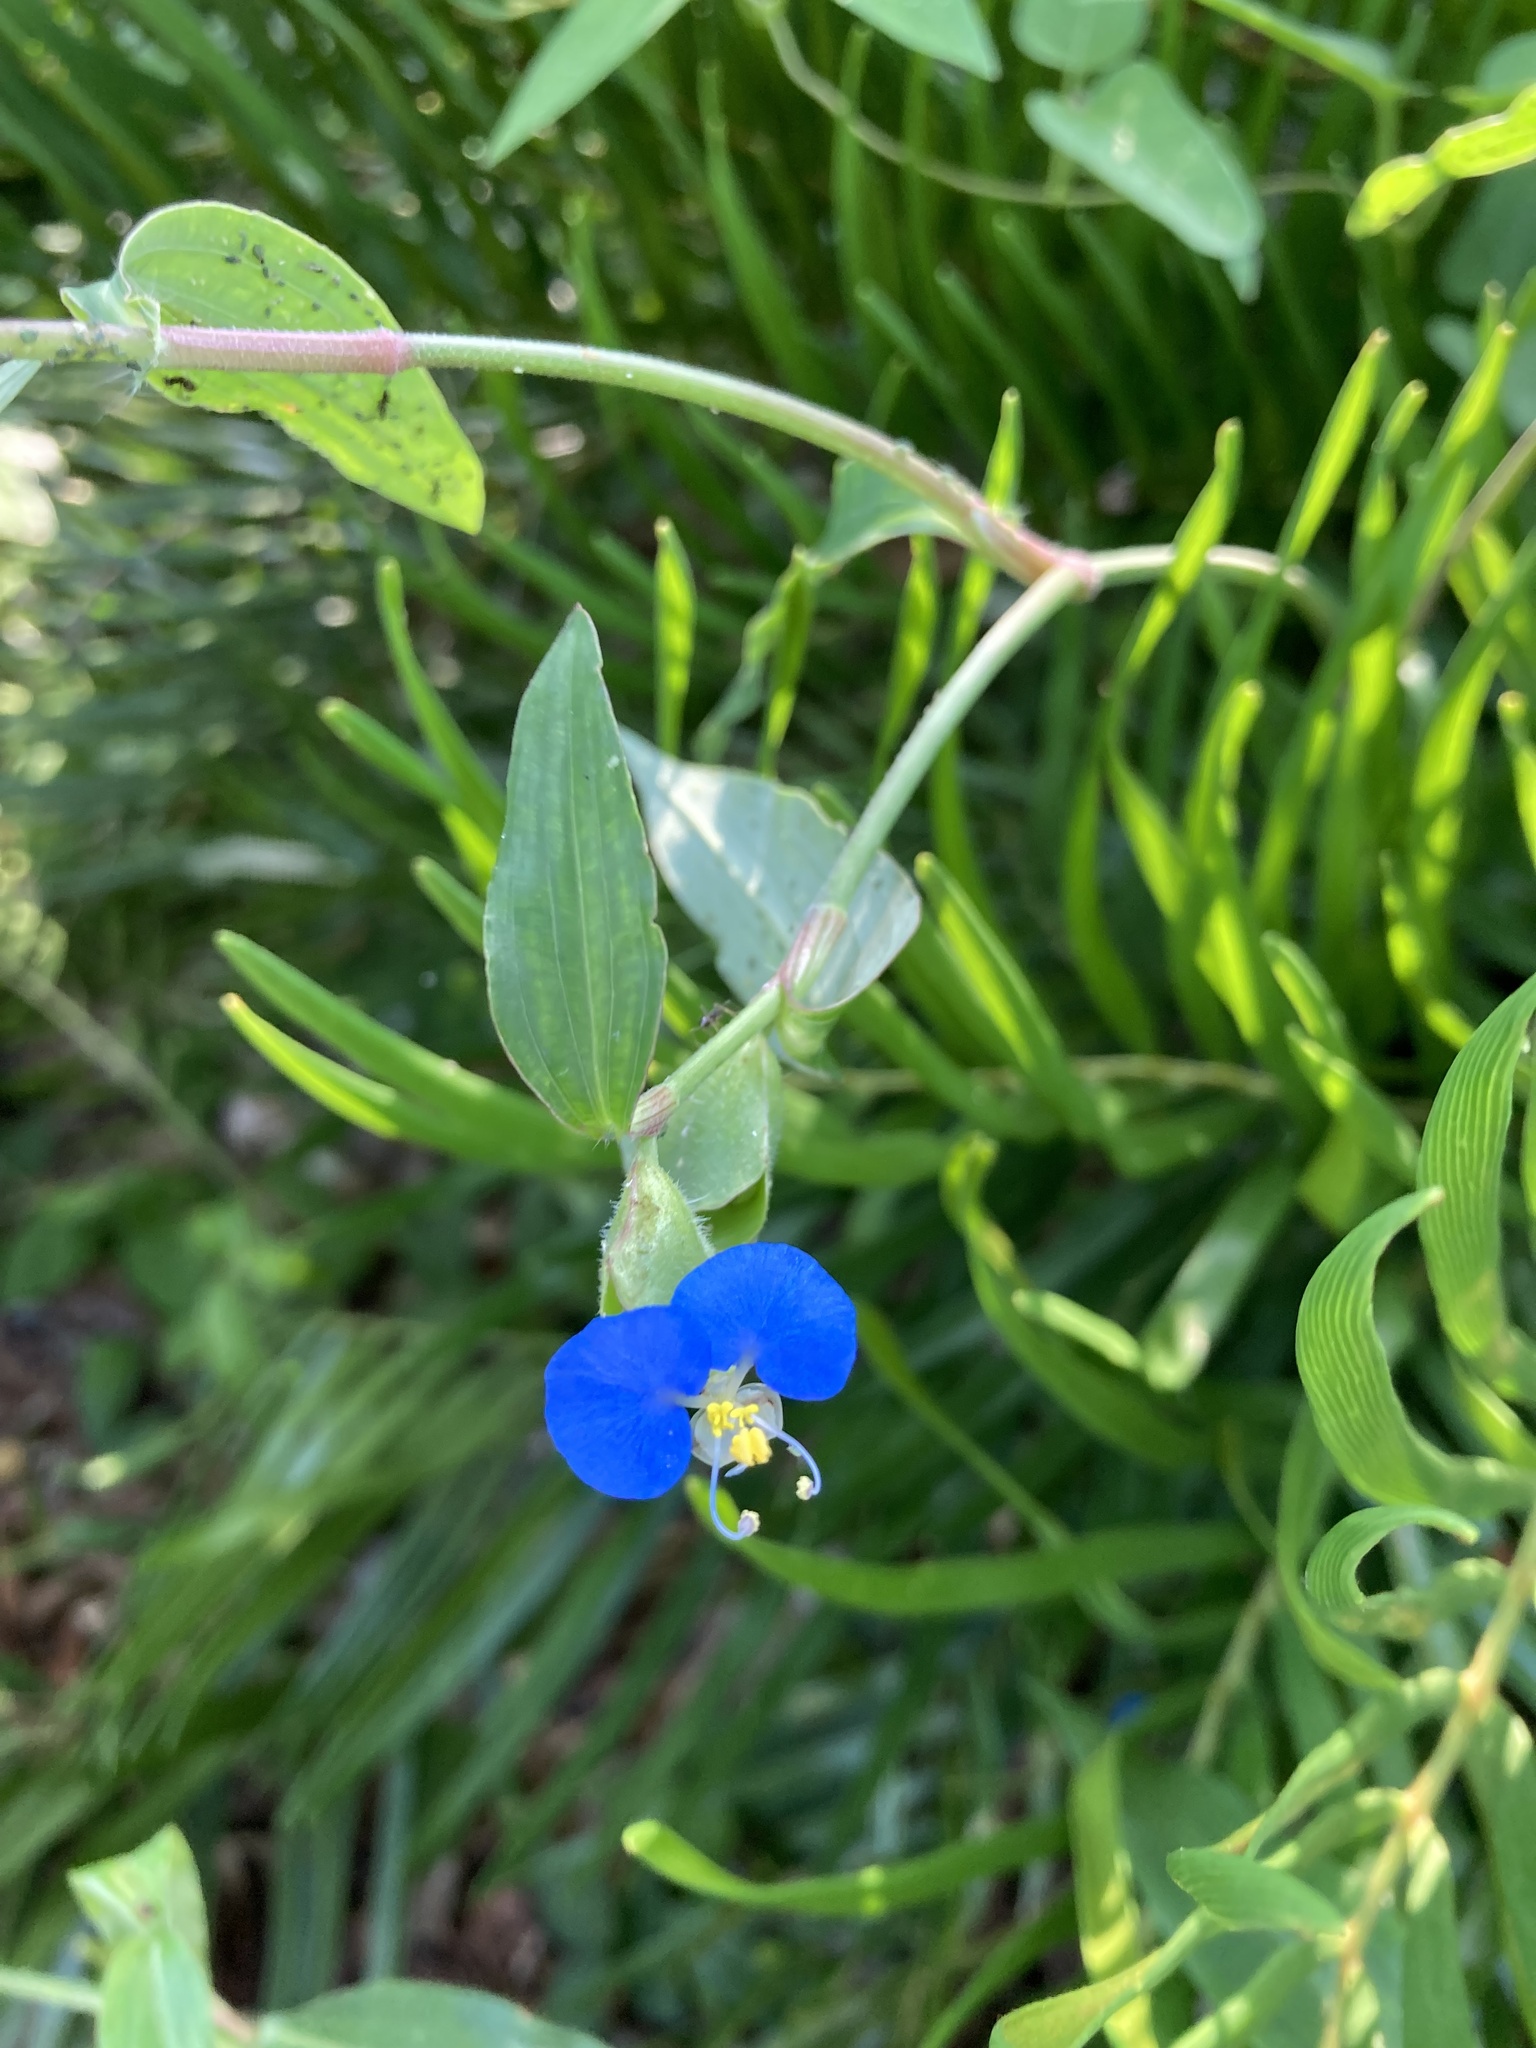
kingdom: Plantae
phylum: Tracheophyta
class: Liliopsida
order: Commelinales
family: Commelinaceae
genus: Commelina
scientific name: Commelina erecta
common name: Blousel blommetjie
